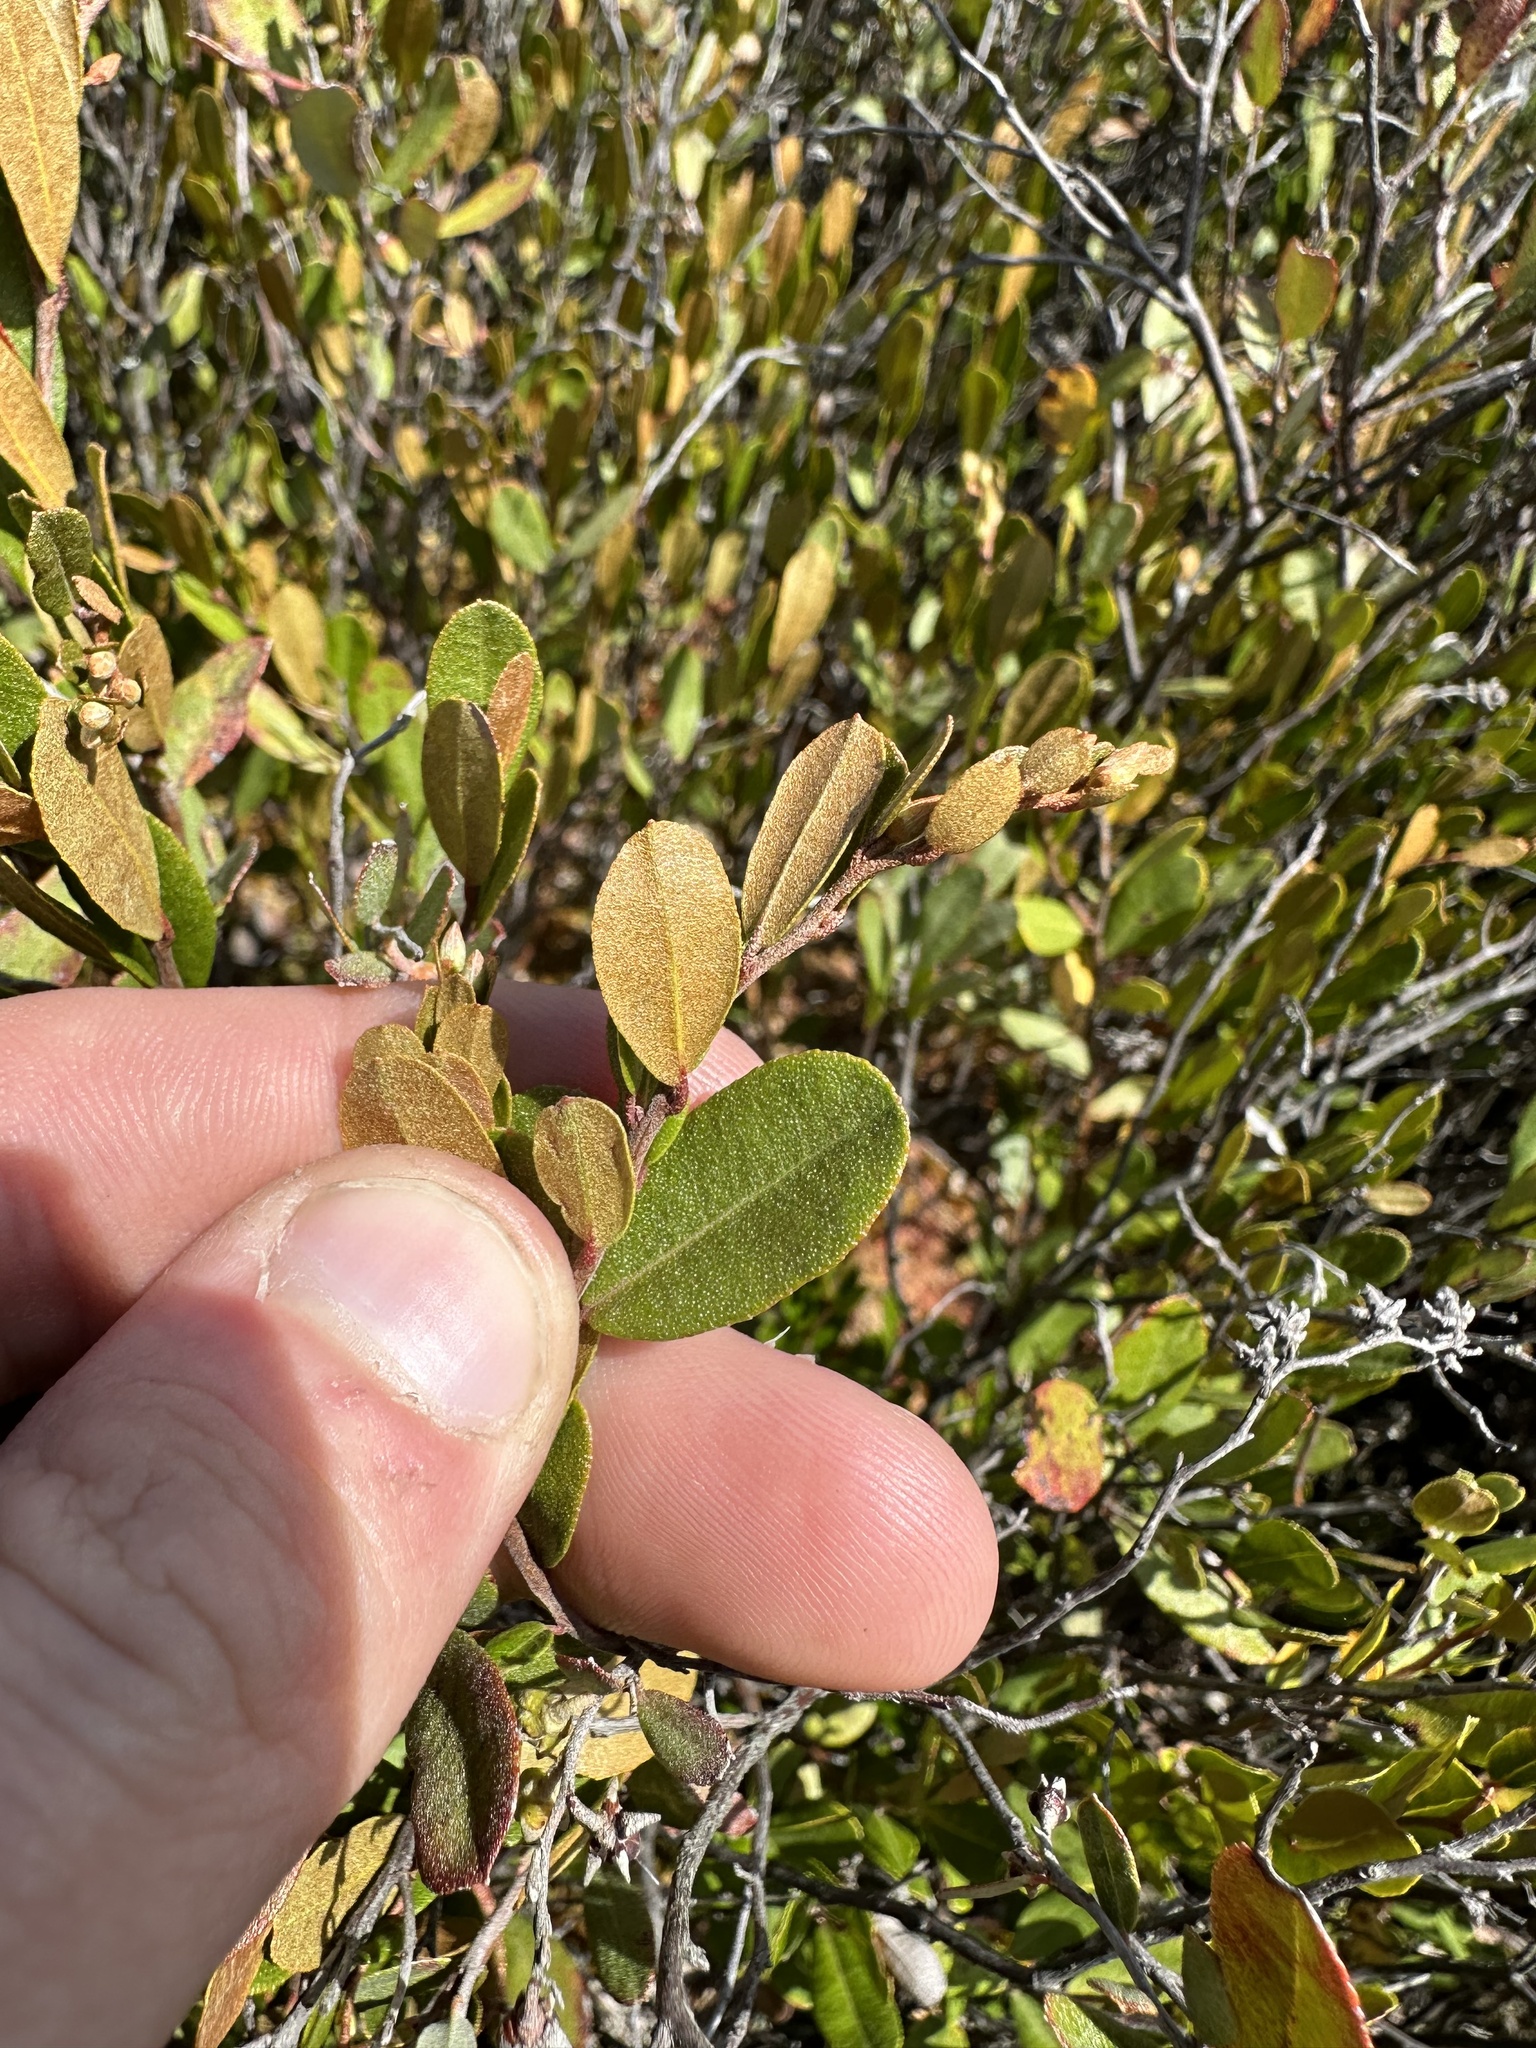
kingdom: Plantae
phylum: Tracheophyta
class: Magnoliopsida
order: Ericales
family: Ericaceae
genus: Chamaedaphne
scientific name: Chamaedaphne calyculata
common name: Leatherleaf
